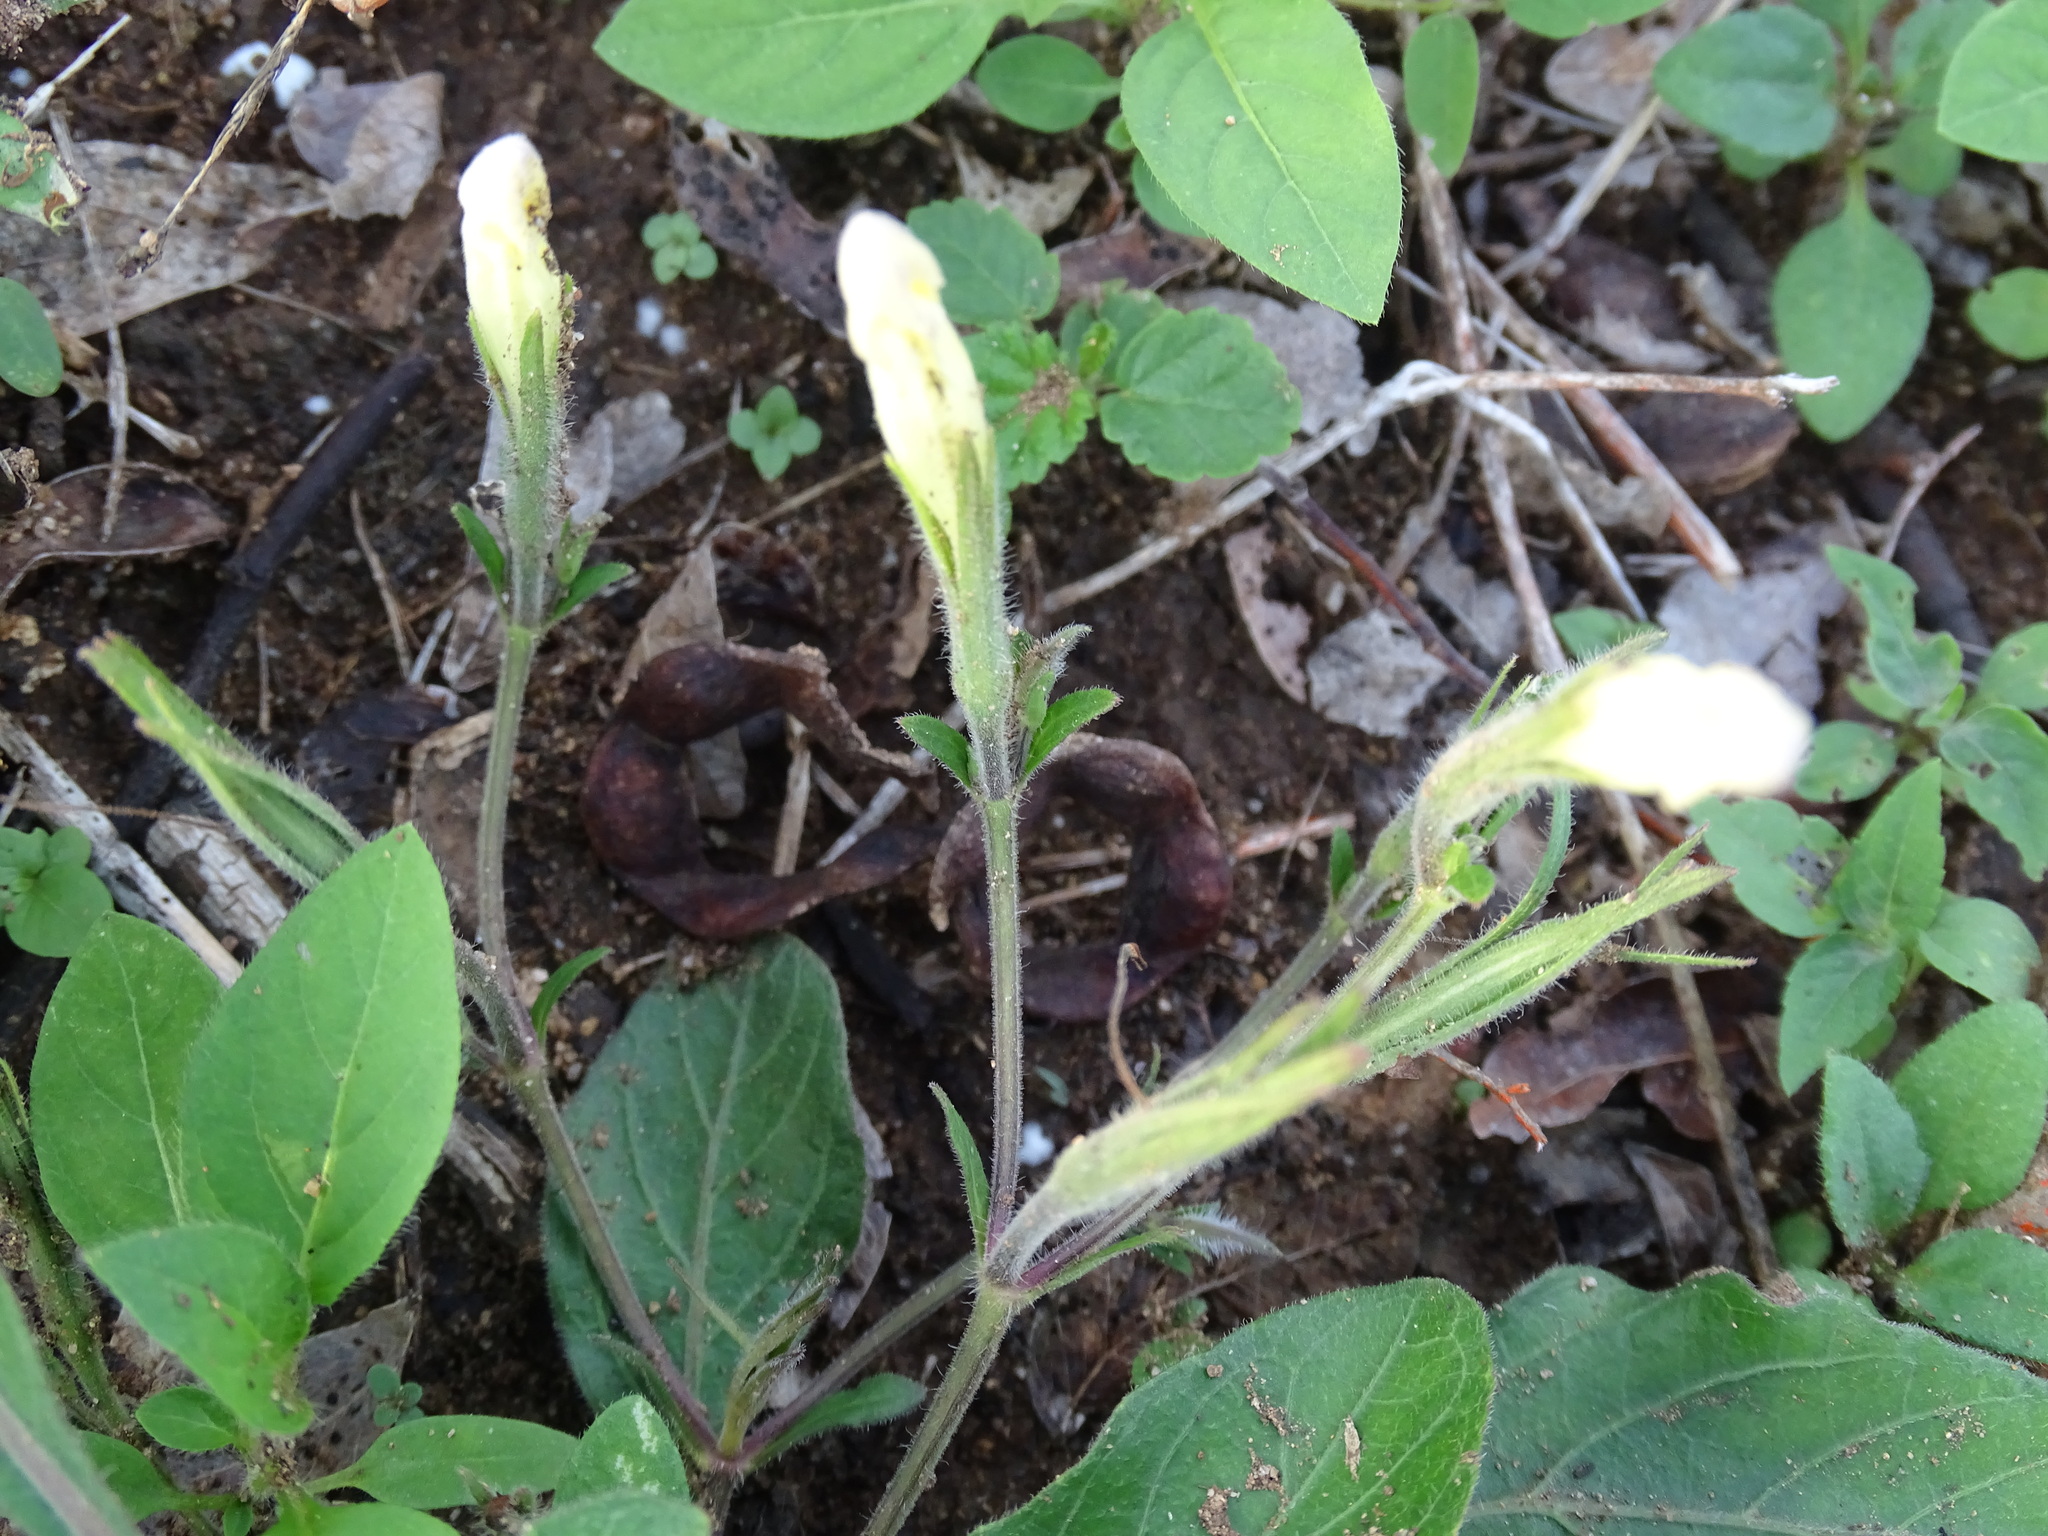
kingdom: Plantae
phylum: Tracheophyta
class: Magnoliopsida
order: Lamiales
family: Acanthaceae
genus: Ruellia
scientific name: Ruellia ciliatiflora
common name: Hairyflower wild petunia
